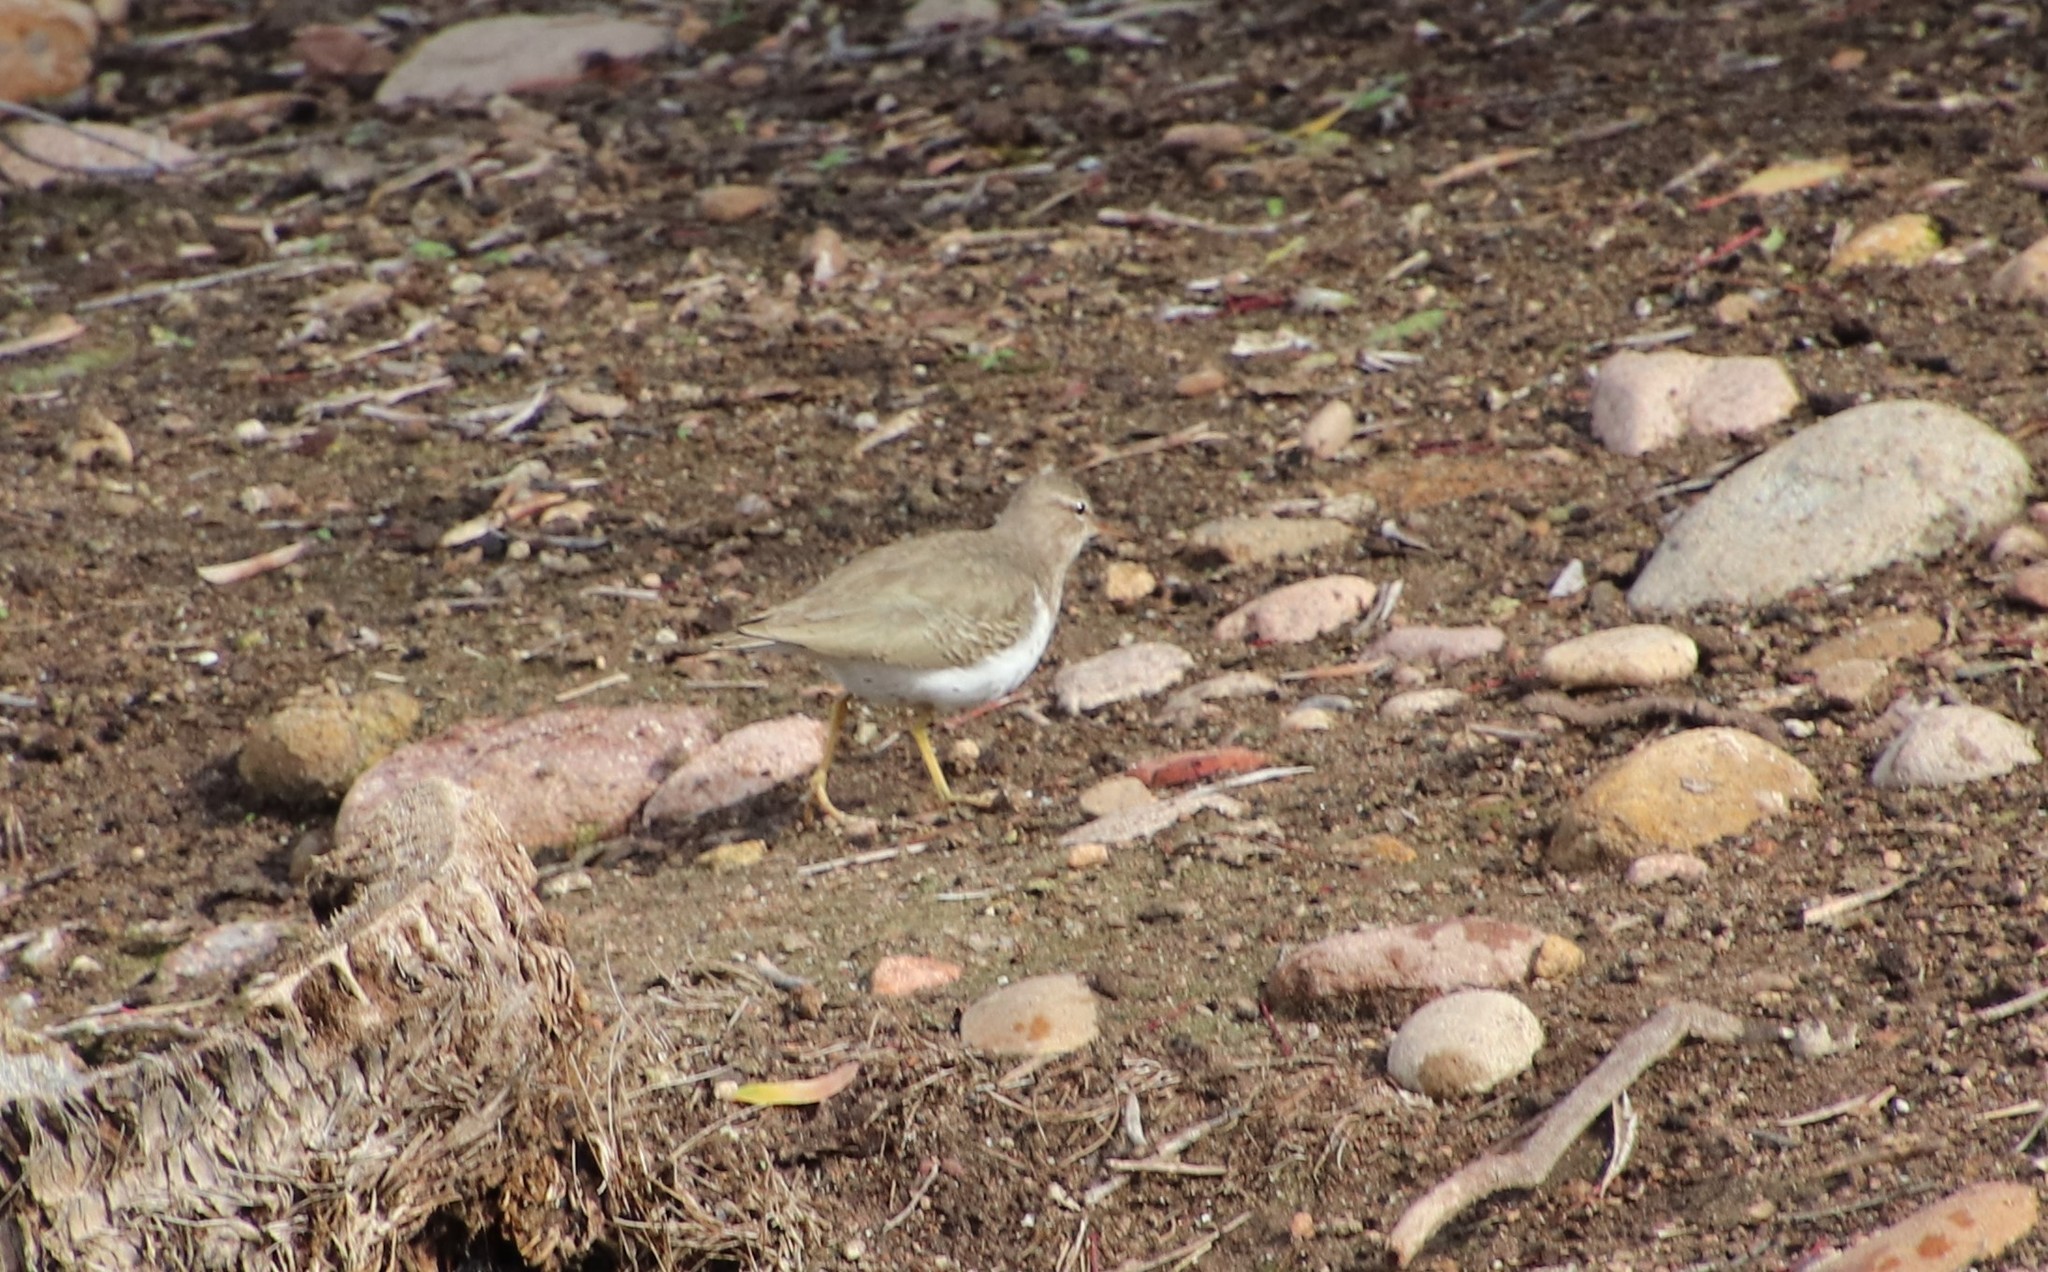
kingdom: Animalia
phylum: Chordata
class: Aves
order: Charadriiformes
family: Scolopacidae
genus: Actitis
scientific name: Actitis macularius
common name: Spotted sandpiper
